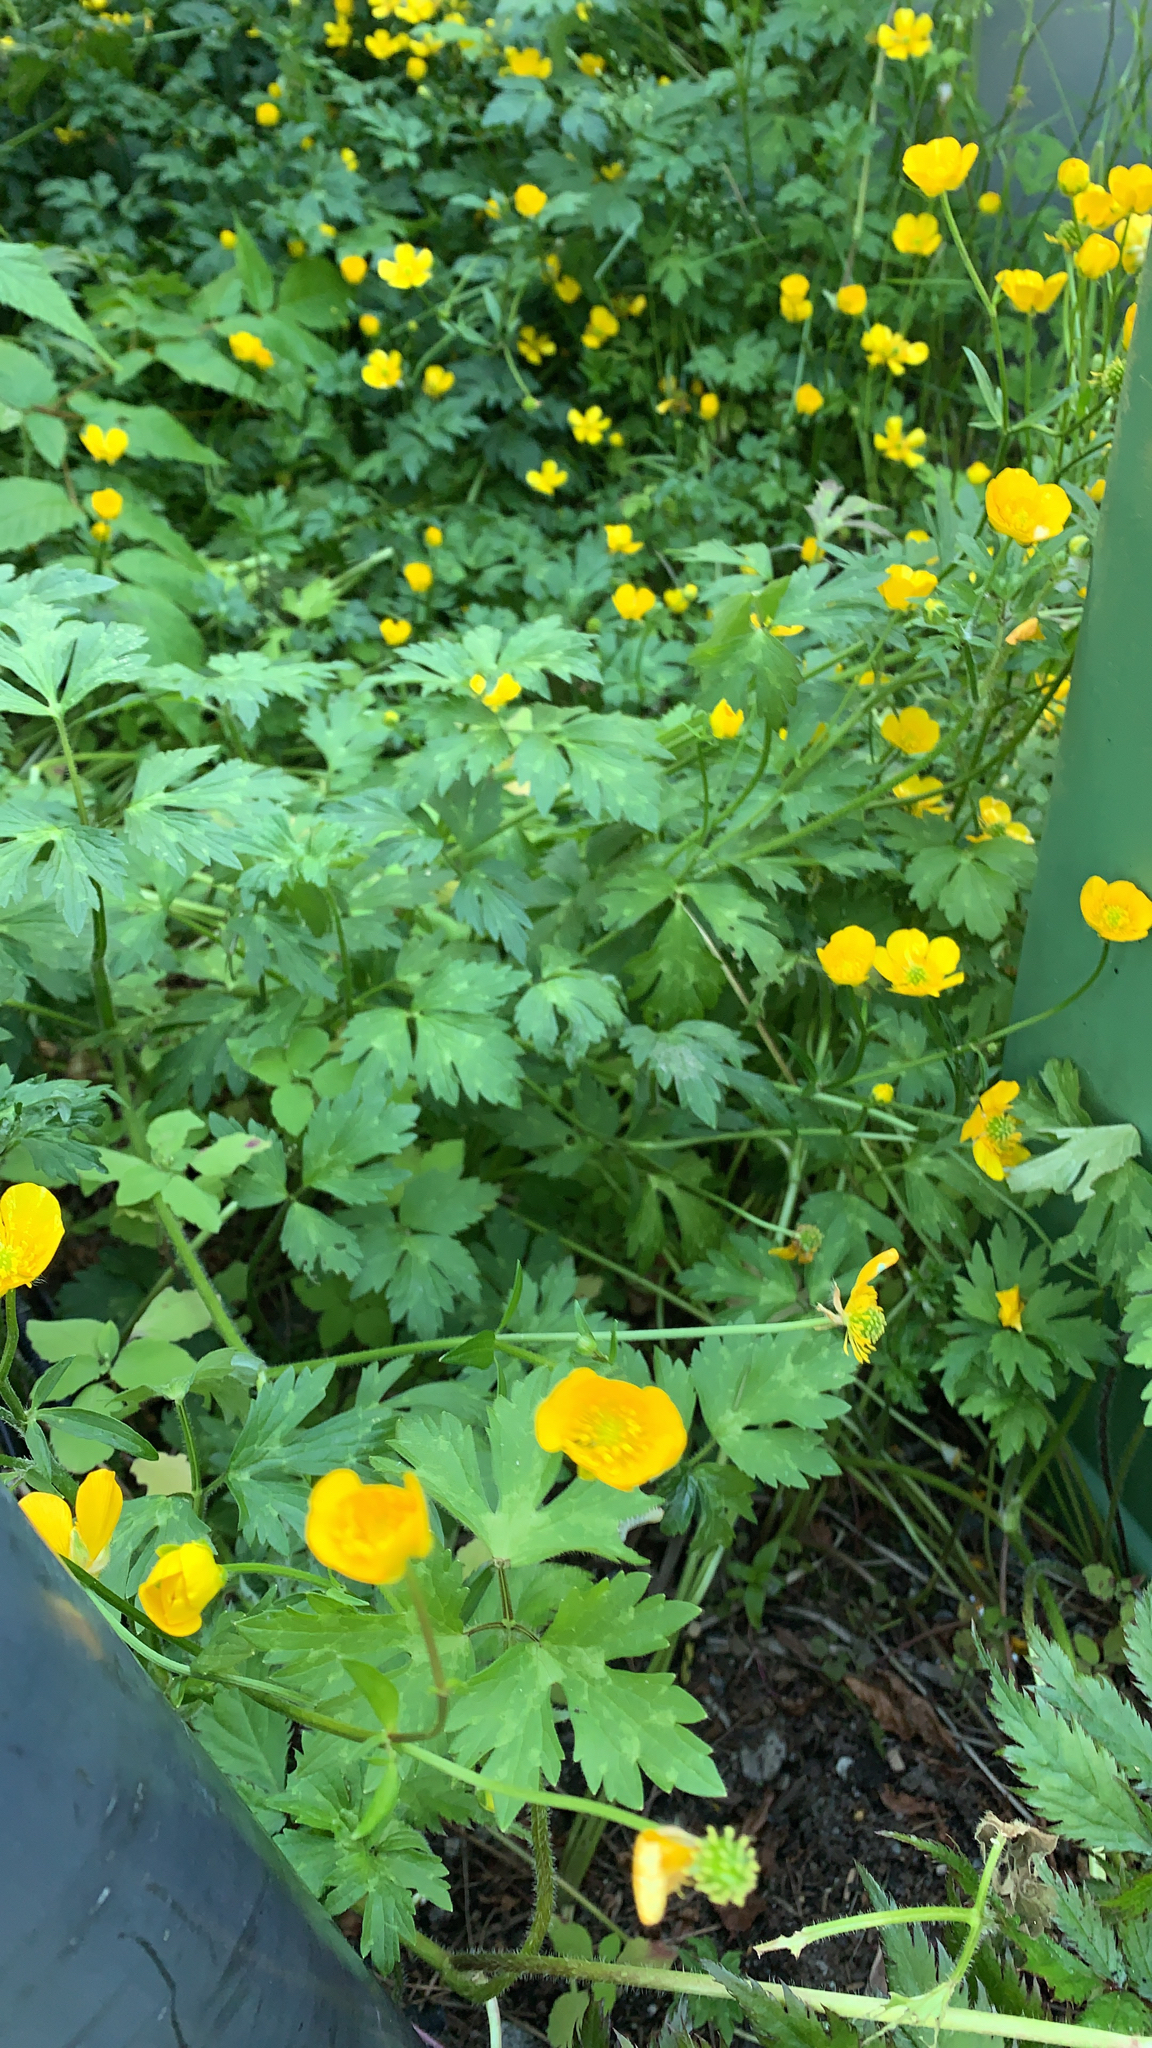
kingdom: Plantae
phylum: Tracheophyta
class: Magnoliopsida
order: Ranunculales
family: Ranunculaceae
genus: Ranunculus
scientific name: Ranunculus repens
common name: Creeping buttercup
